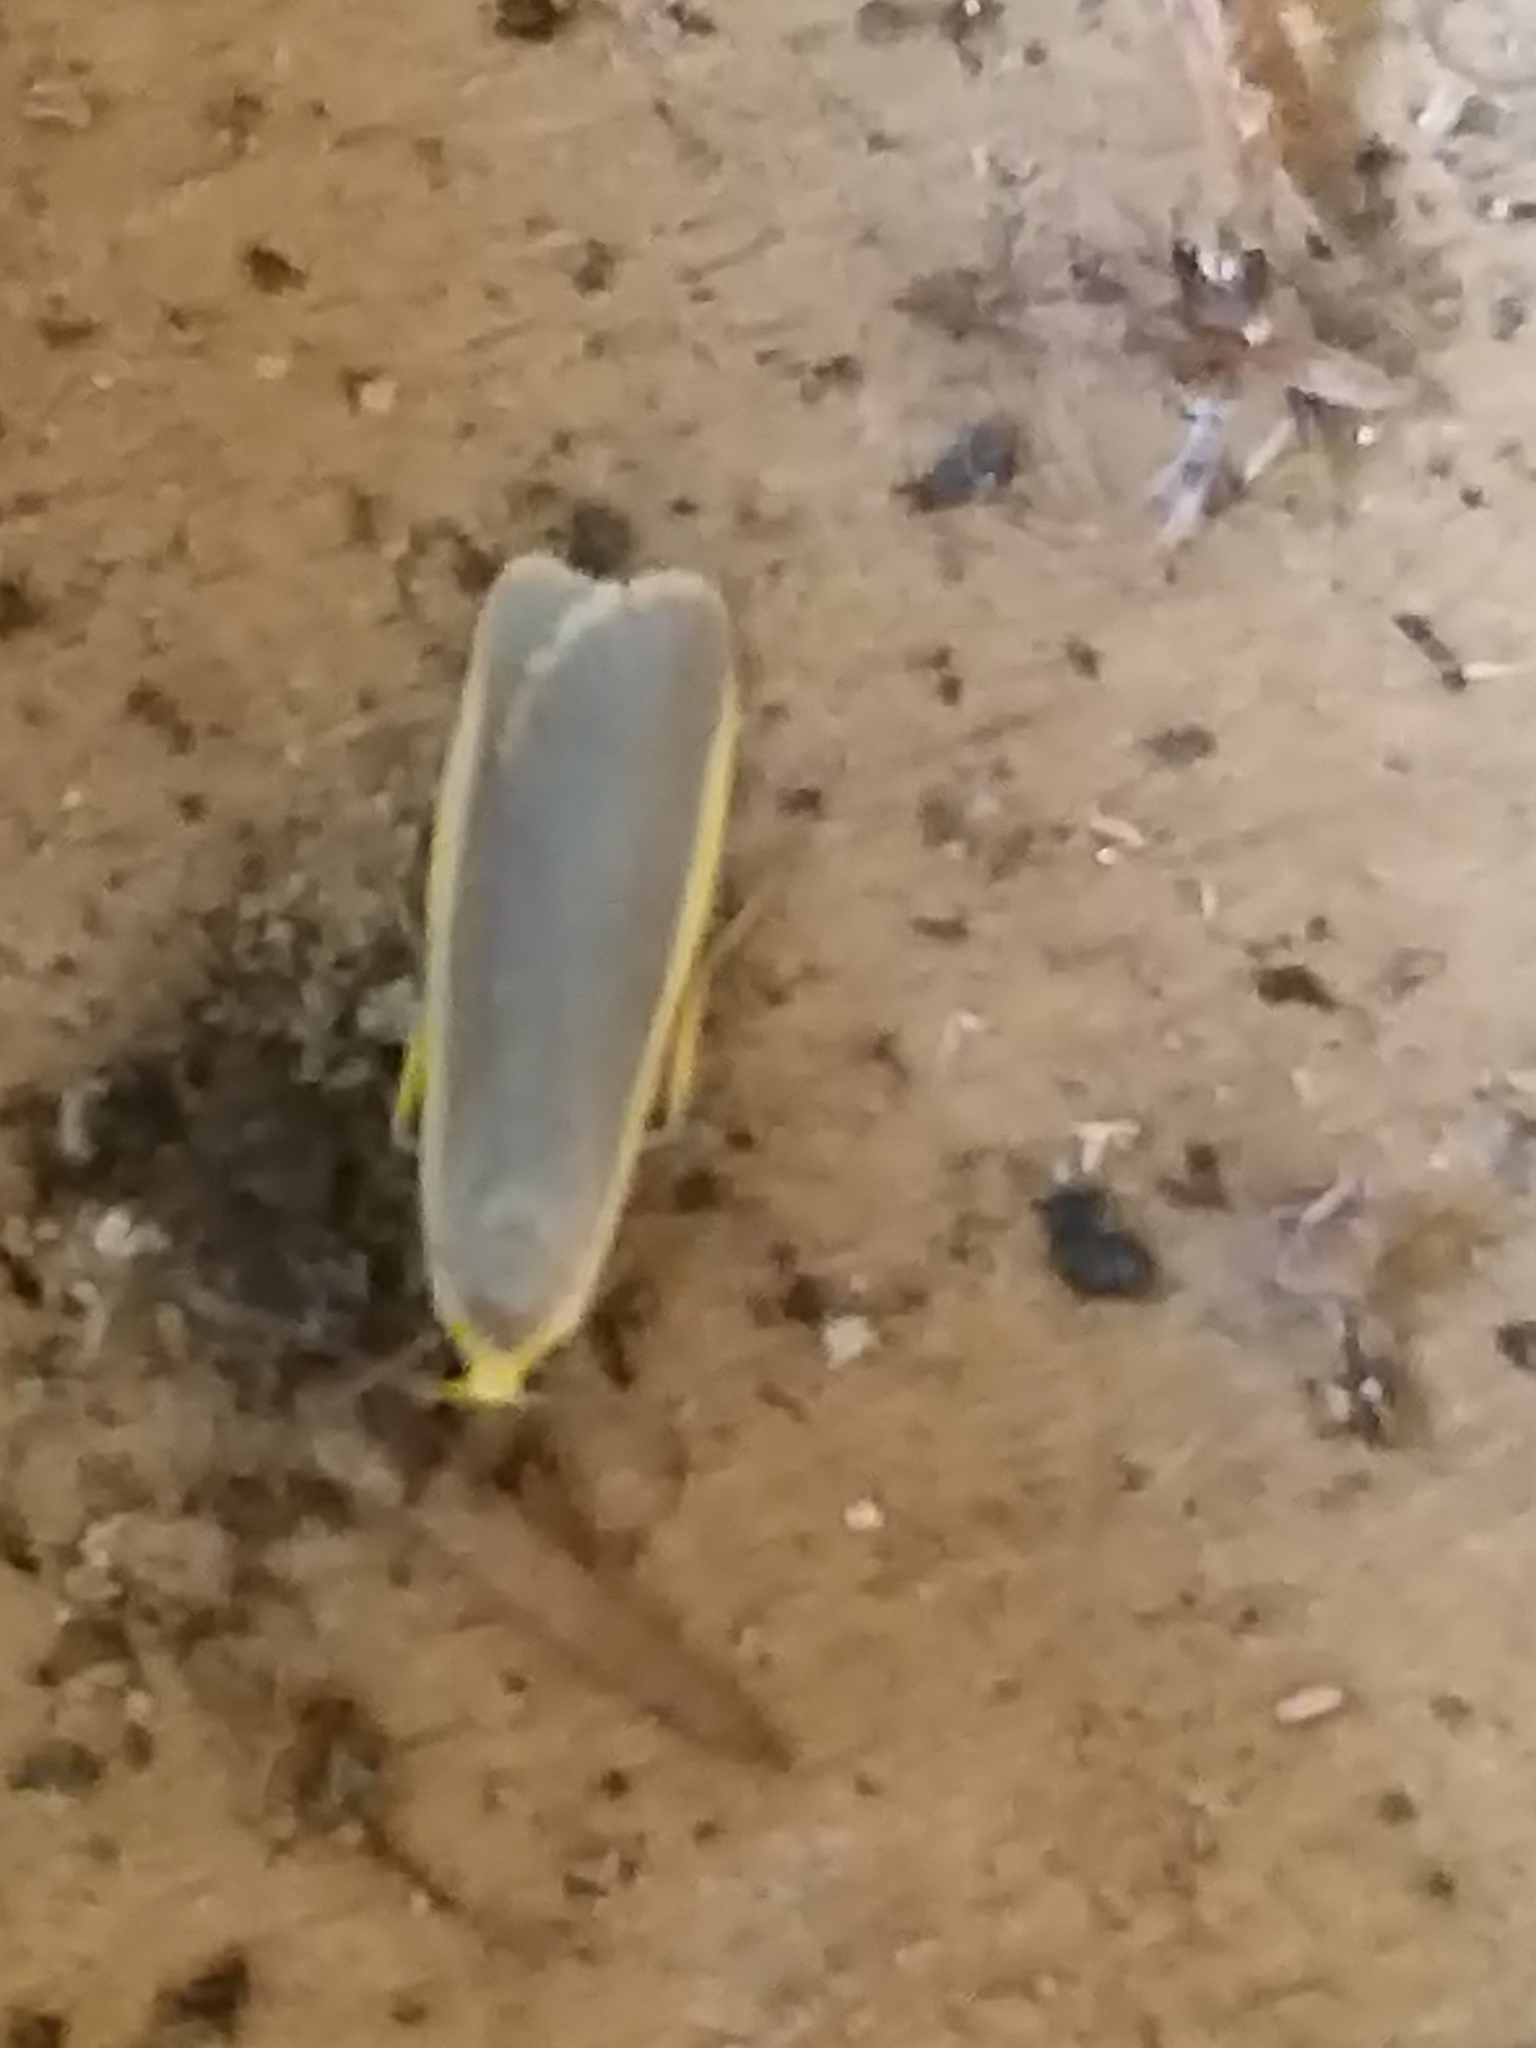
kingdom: Animalia
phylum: Arthropoda
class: Insecta
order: Lepidoptera
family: Erebidae
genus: Nyea
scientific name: Nyea lurideola
